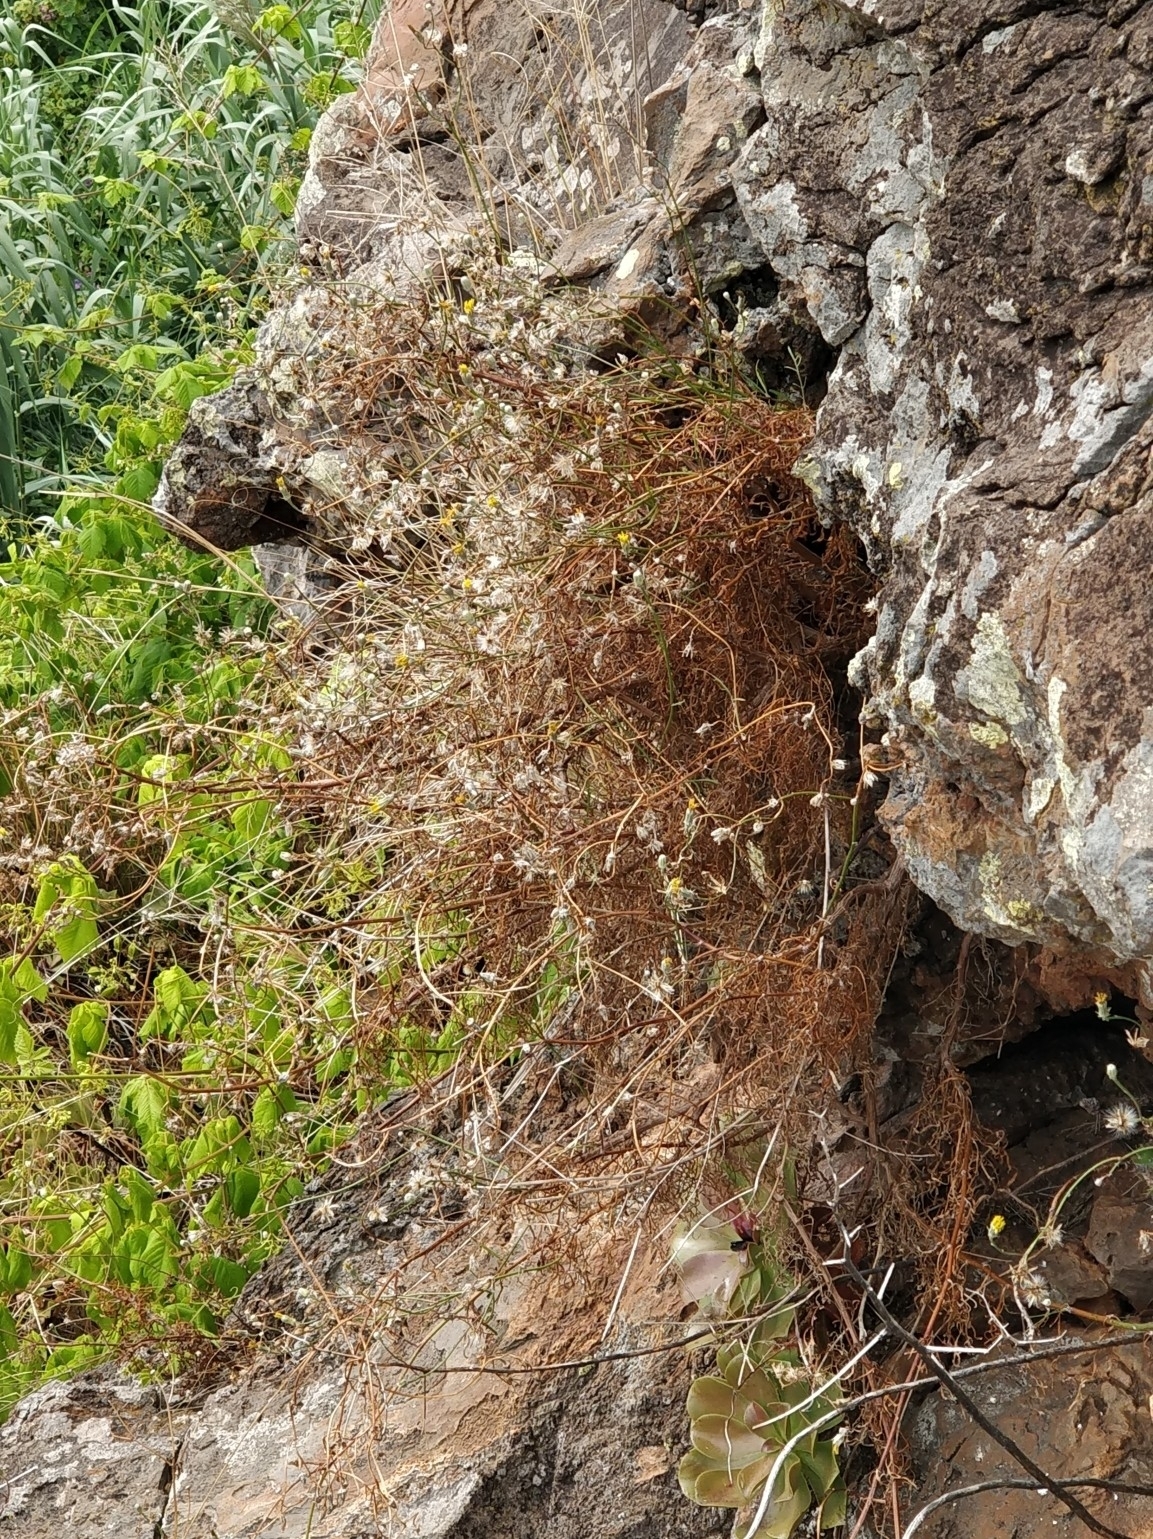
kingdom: Plantae
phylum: Tracheophyta
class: Magnoliopsida
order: Asterales
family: Asteraceae
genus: Tolpis
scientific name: Tolpis succulenta
